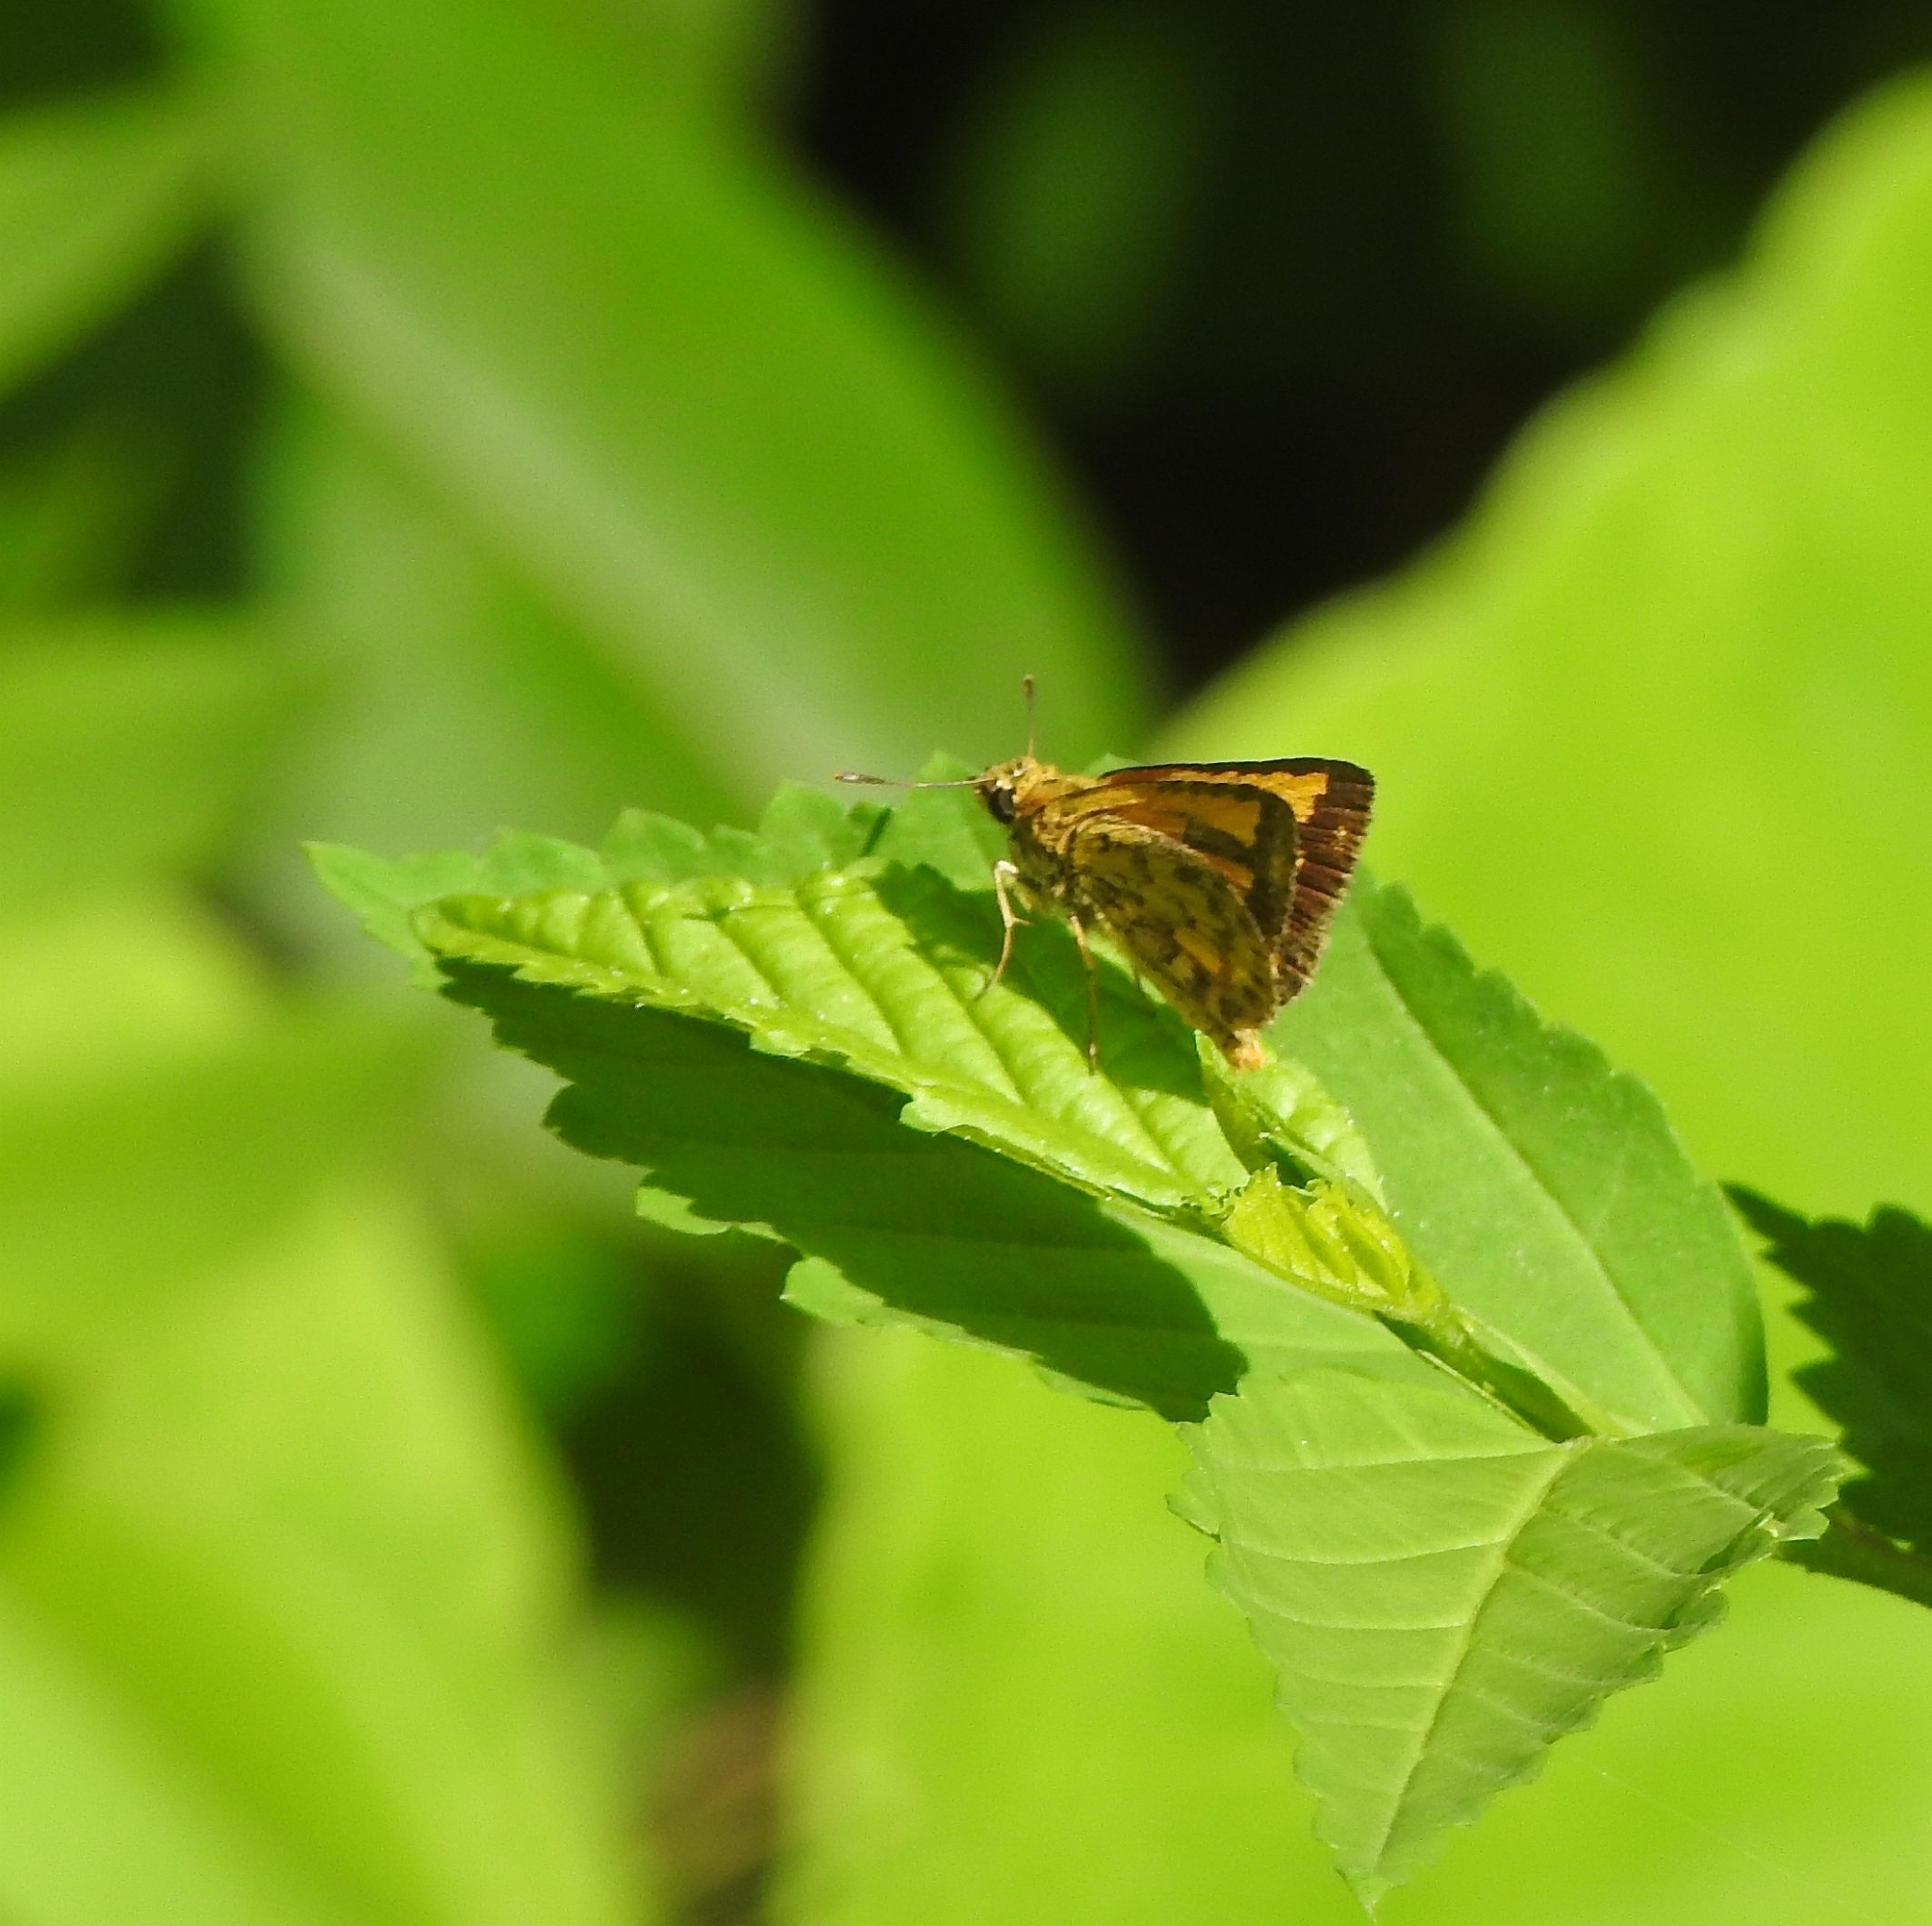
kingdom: Animalia
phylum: Arthropoda
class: Insecta
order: Lepidoptera
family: Hesperiidae
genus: Ampittia
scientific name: Ampittia dioscorides
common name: Common bush hopper
